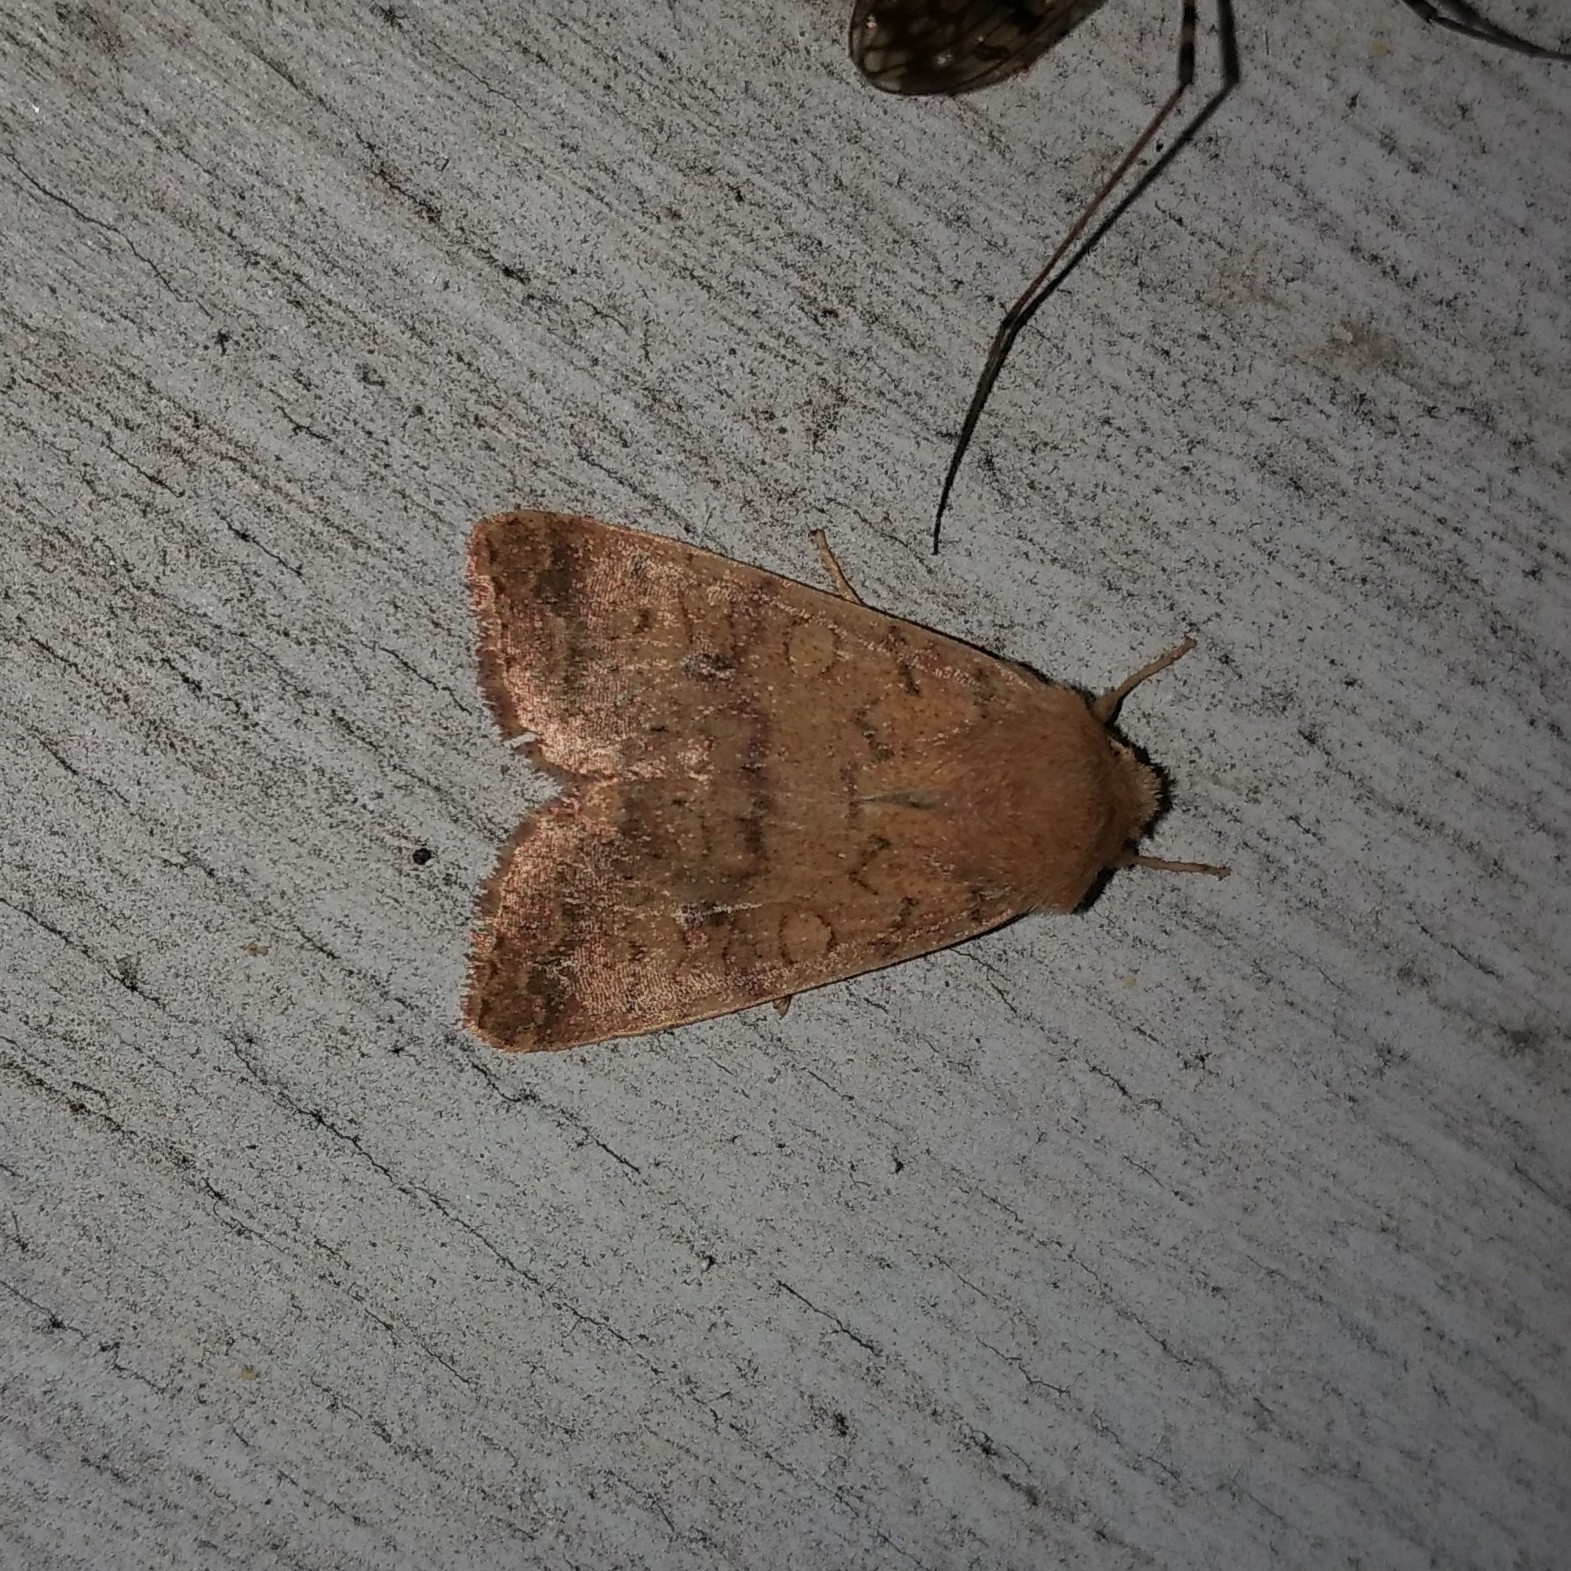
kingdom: Animalia
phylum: Arthropoda
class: Insecta
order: Lepidoptera
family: Noctuidae
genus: Agrochola
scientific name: Agrochola bicolorago
